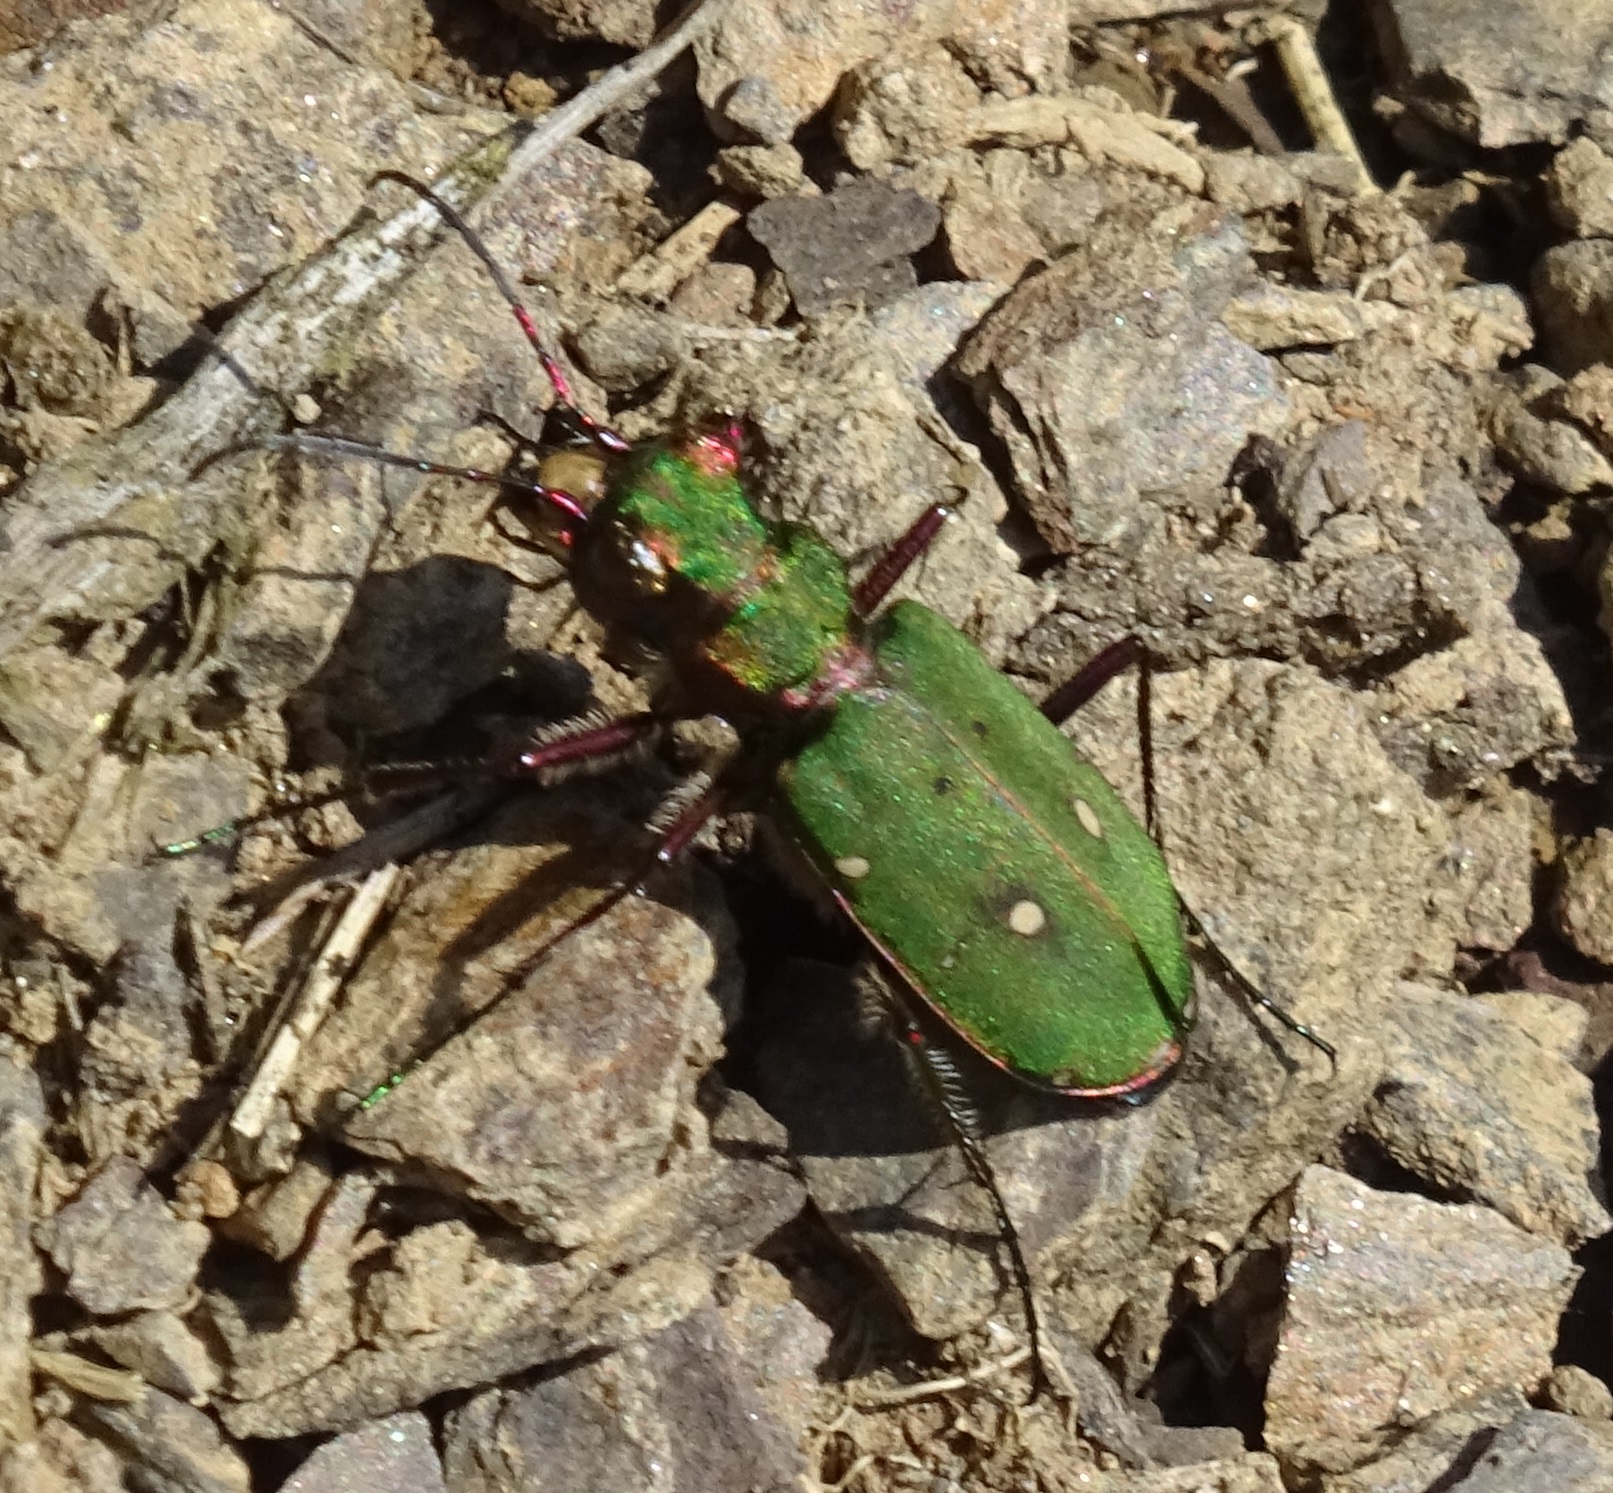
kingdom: Animalia
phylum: Arthropoda
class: Insecta
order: Coleoptera
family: Carabidae
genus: Cicindela
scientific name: Cicindela campestris
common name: Common tiger beetle
